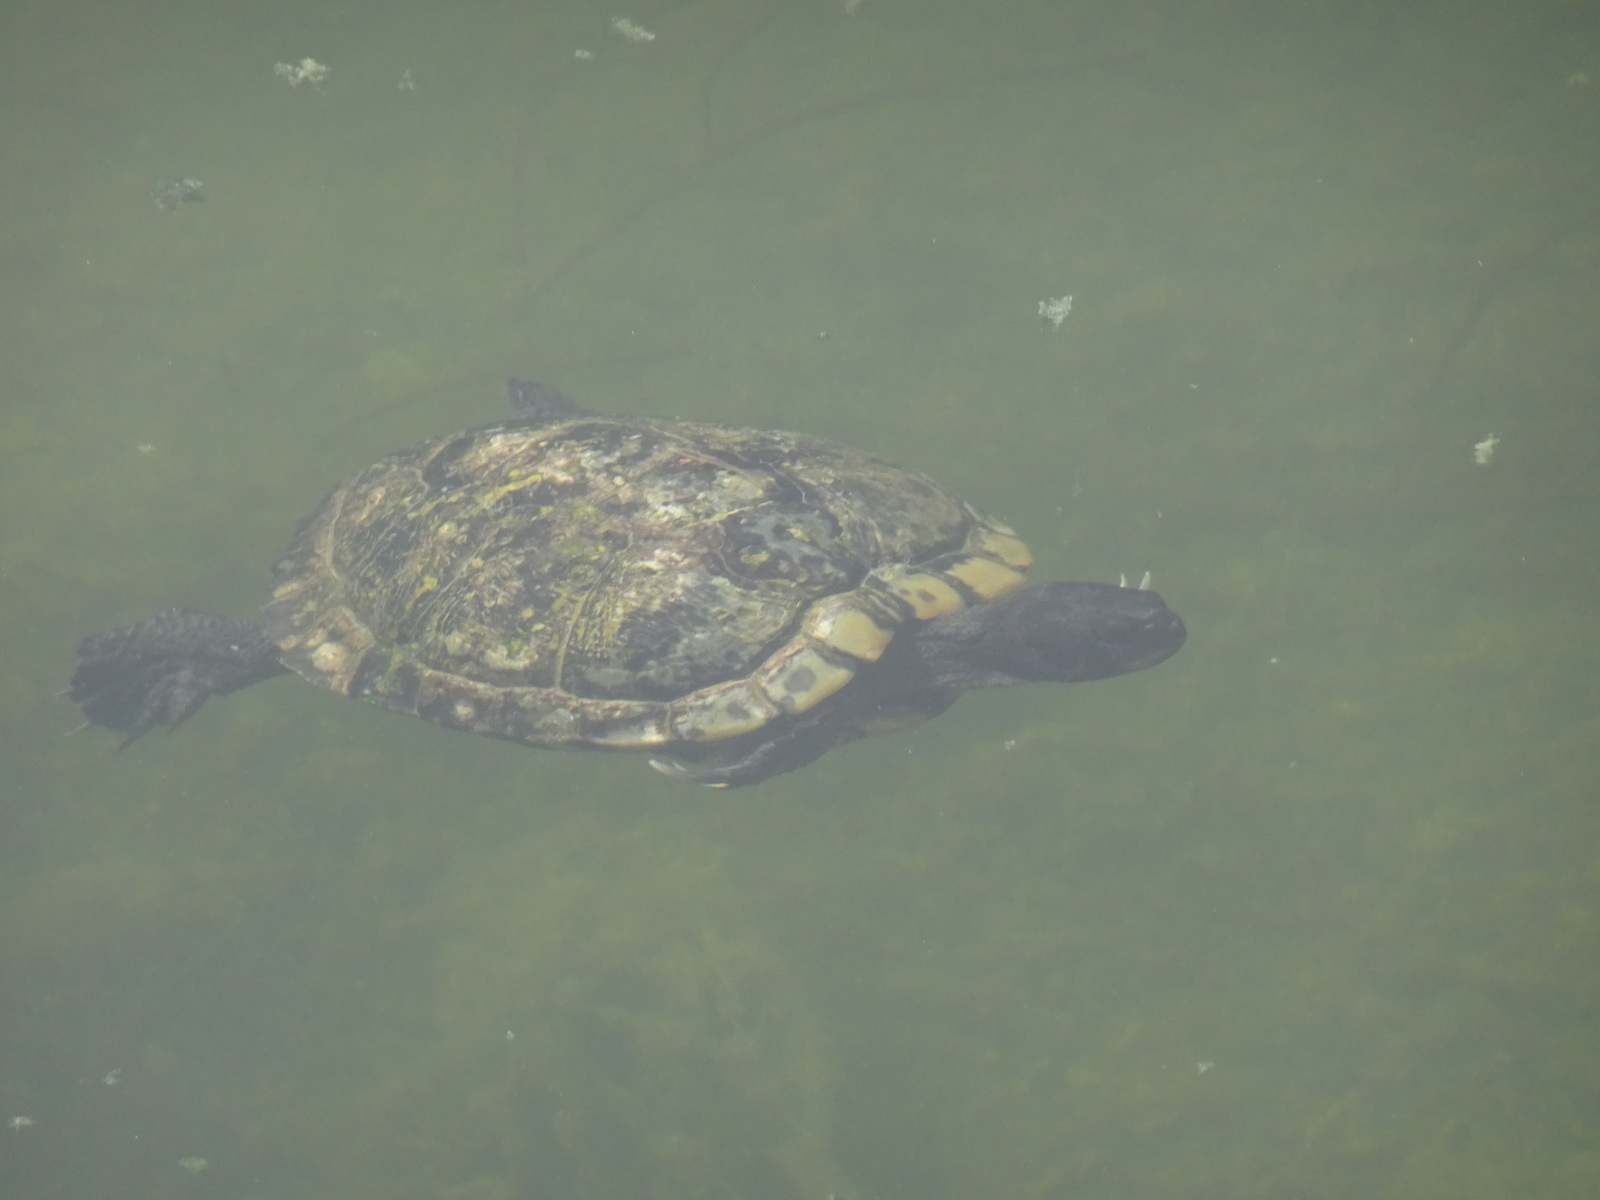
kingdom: Animalia
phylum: Chordata
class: Testudines
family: Emydidae
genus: Trachemys
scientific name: Trachemys scripta
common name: Slider
